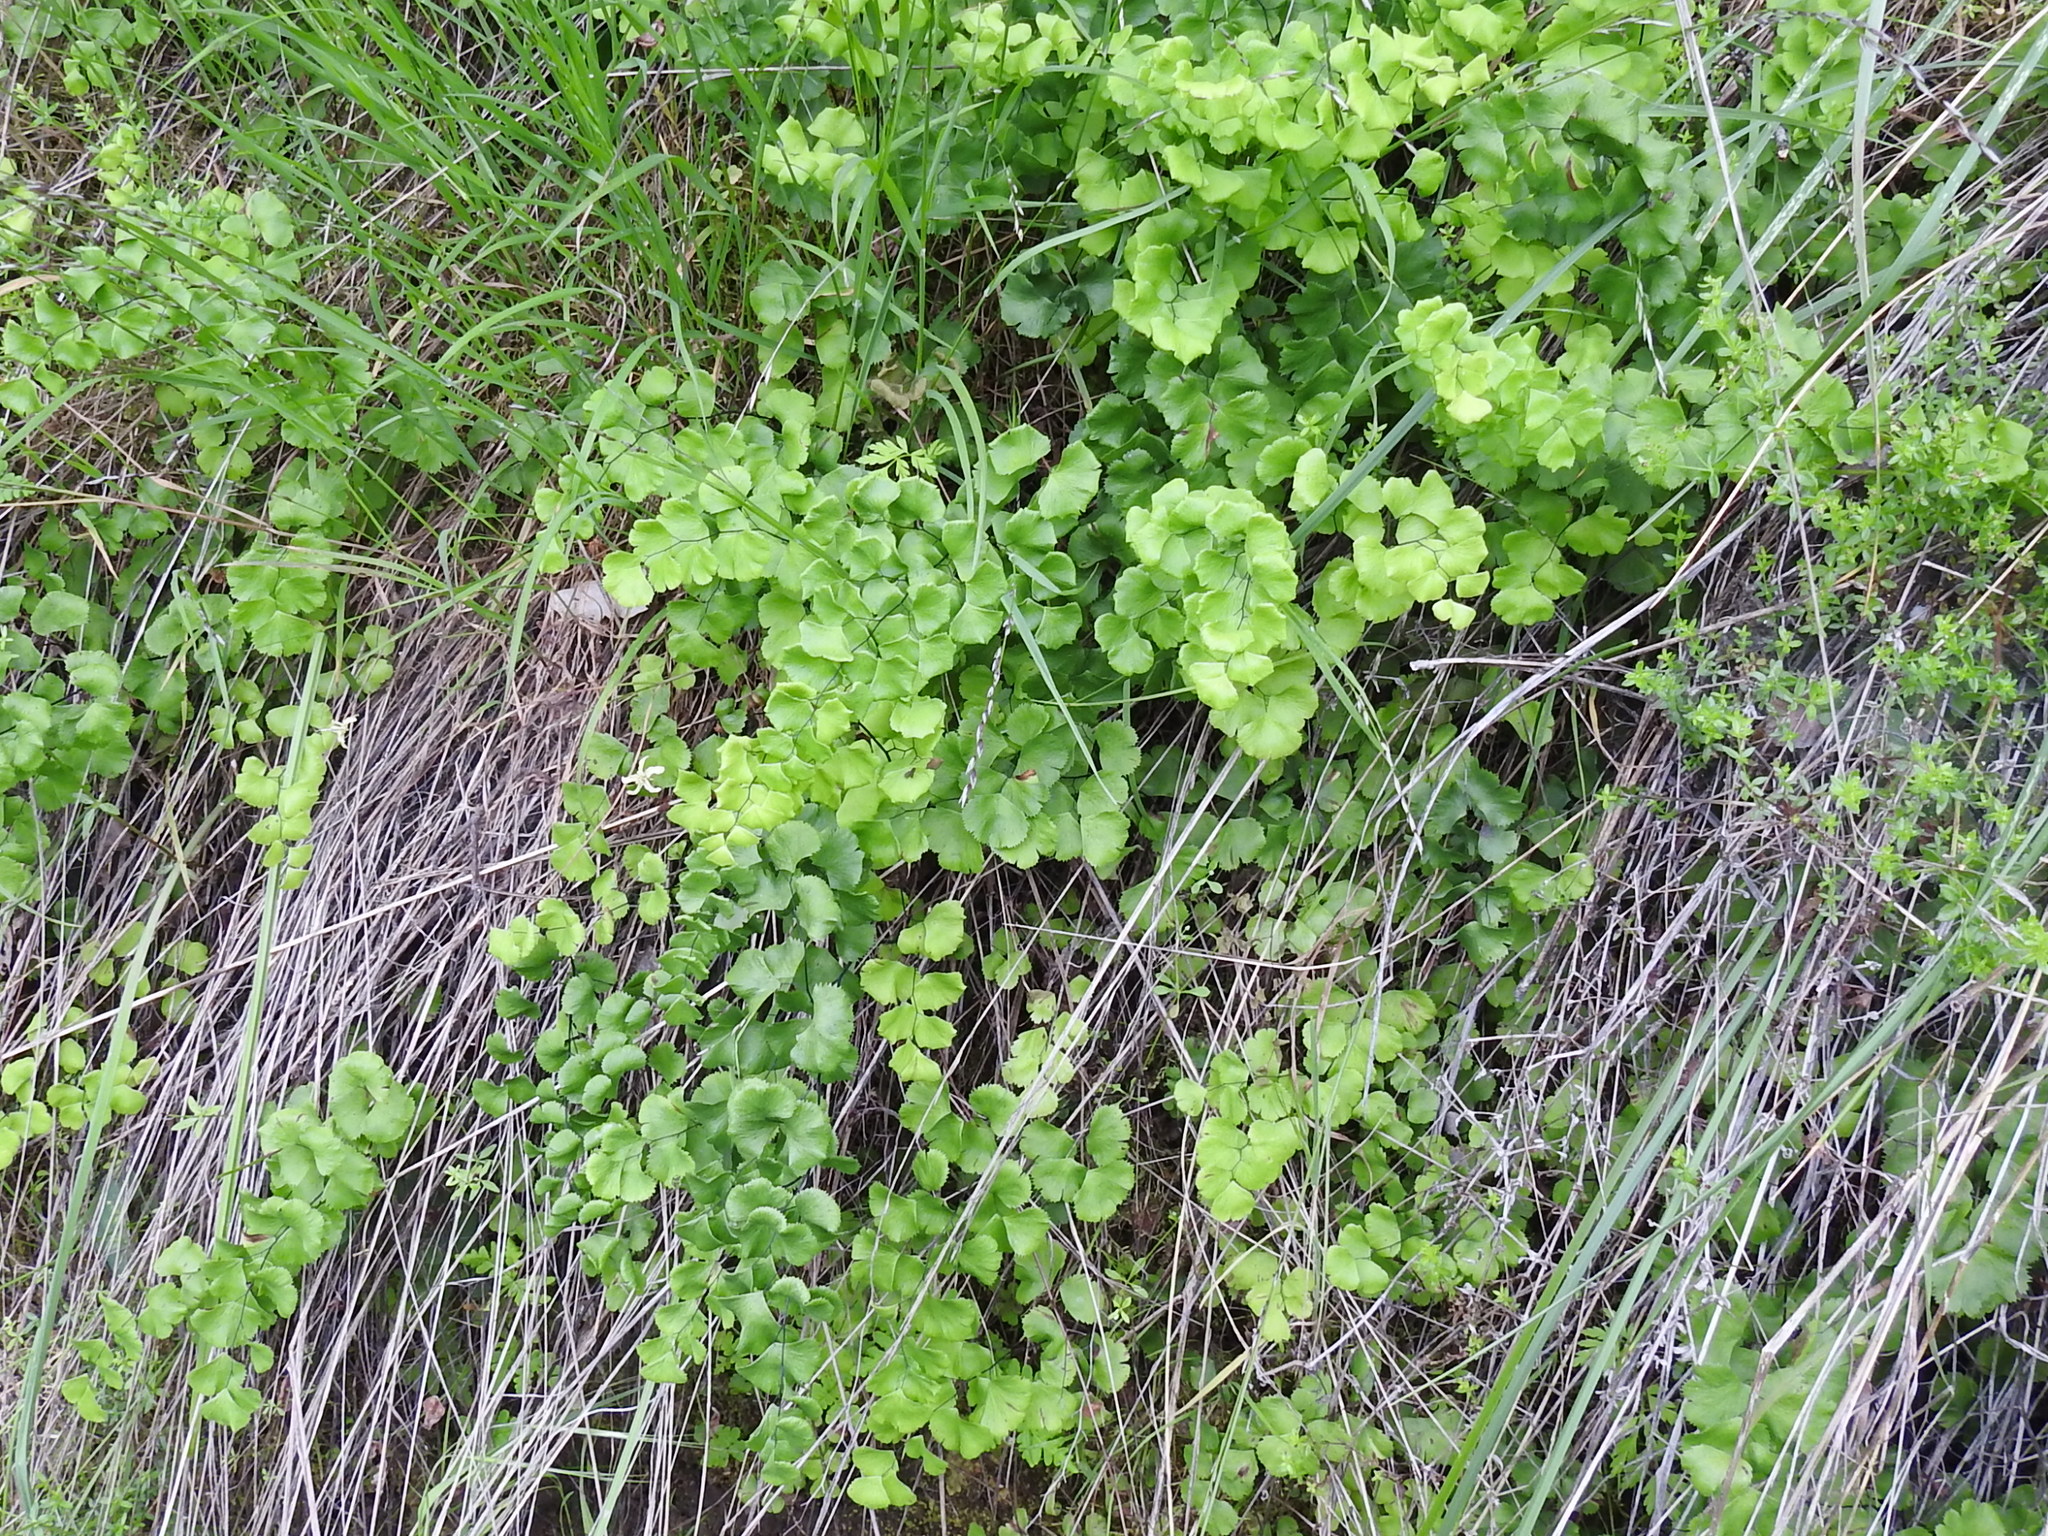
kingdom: Plantae
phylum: Tracheophyta
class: Polypodiopsida
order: Polypodiales
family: Pteridaceae
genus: Adiantum
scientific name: Adiantum jordanii
